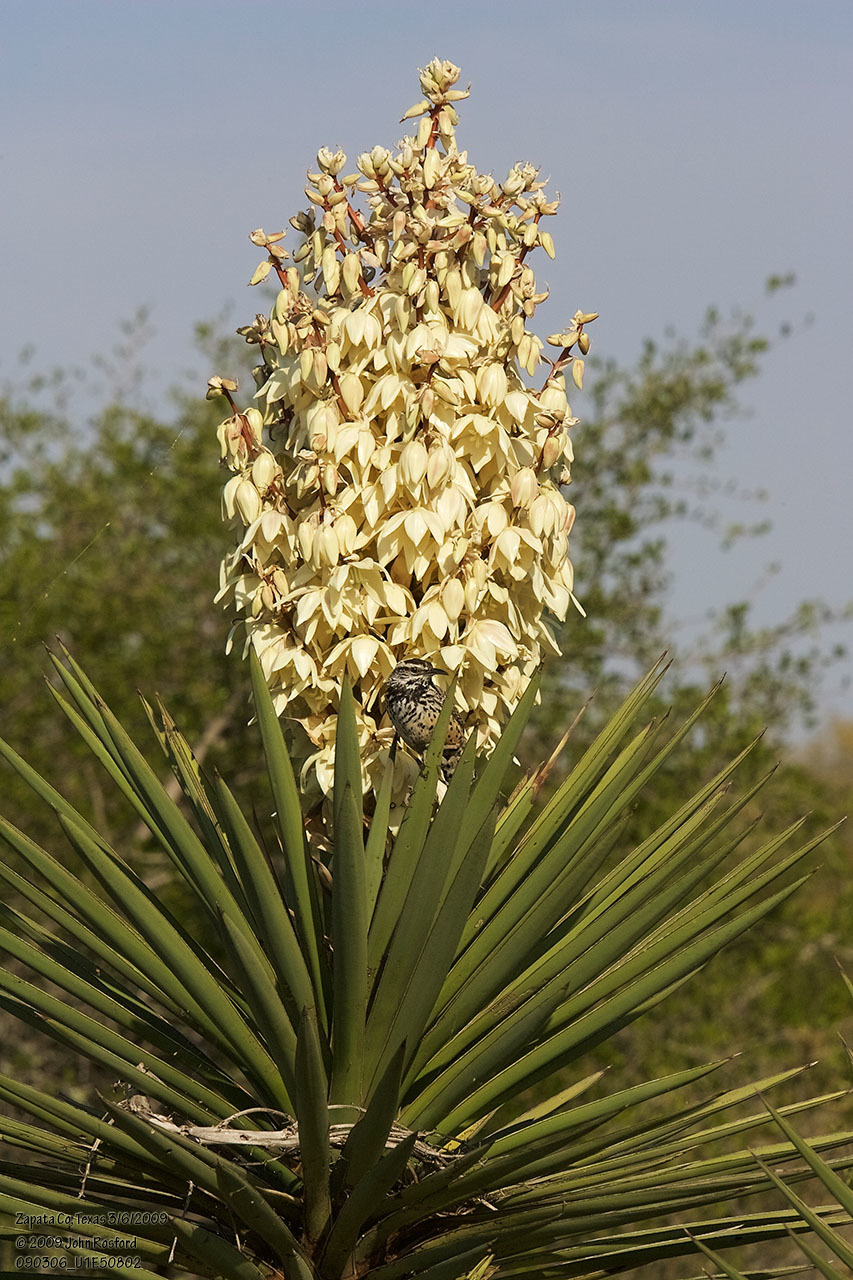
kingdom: Plantae
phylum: Tracheophyta
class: Liliopsida
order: Asparagales
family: Asparagaceae
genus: Yucca
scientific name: Yucca treculiana
